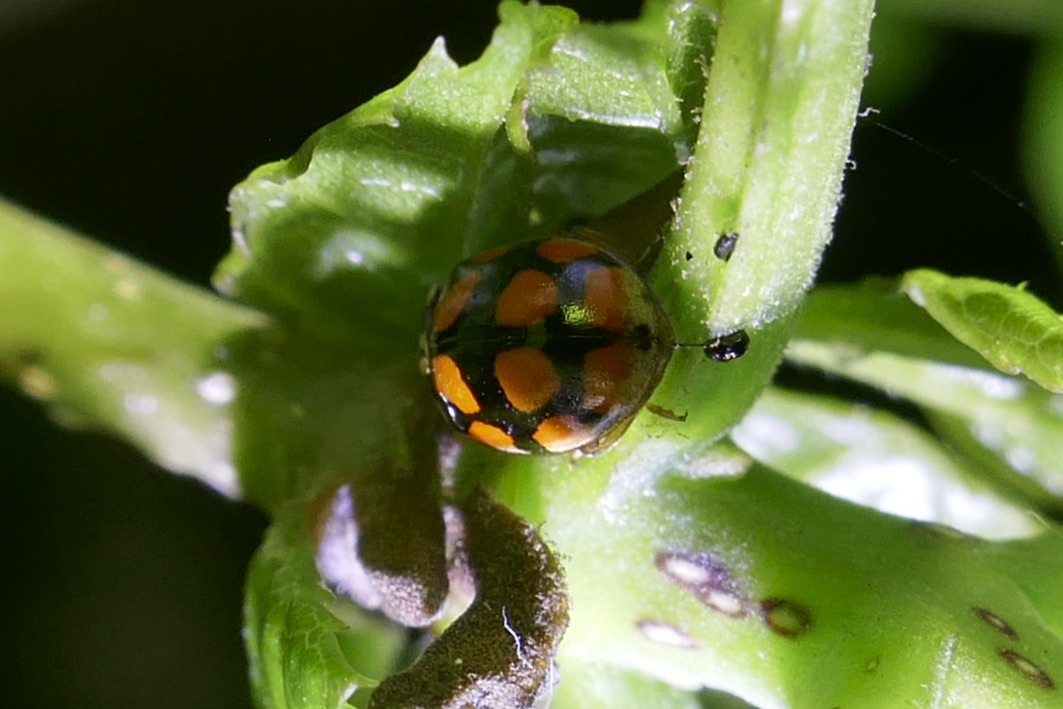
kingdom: Animalia
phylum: Arthropoda
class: Insecta
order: Coleoptera
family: Coccinellidae
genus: Adalia
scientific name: Adalia decempunctata
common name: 10-spot ladybird
